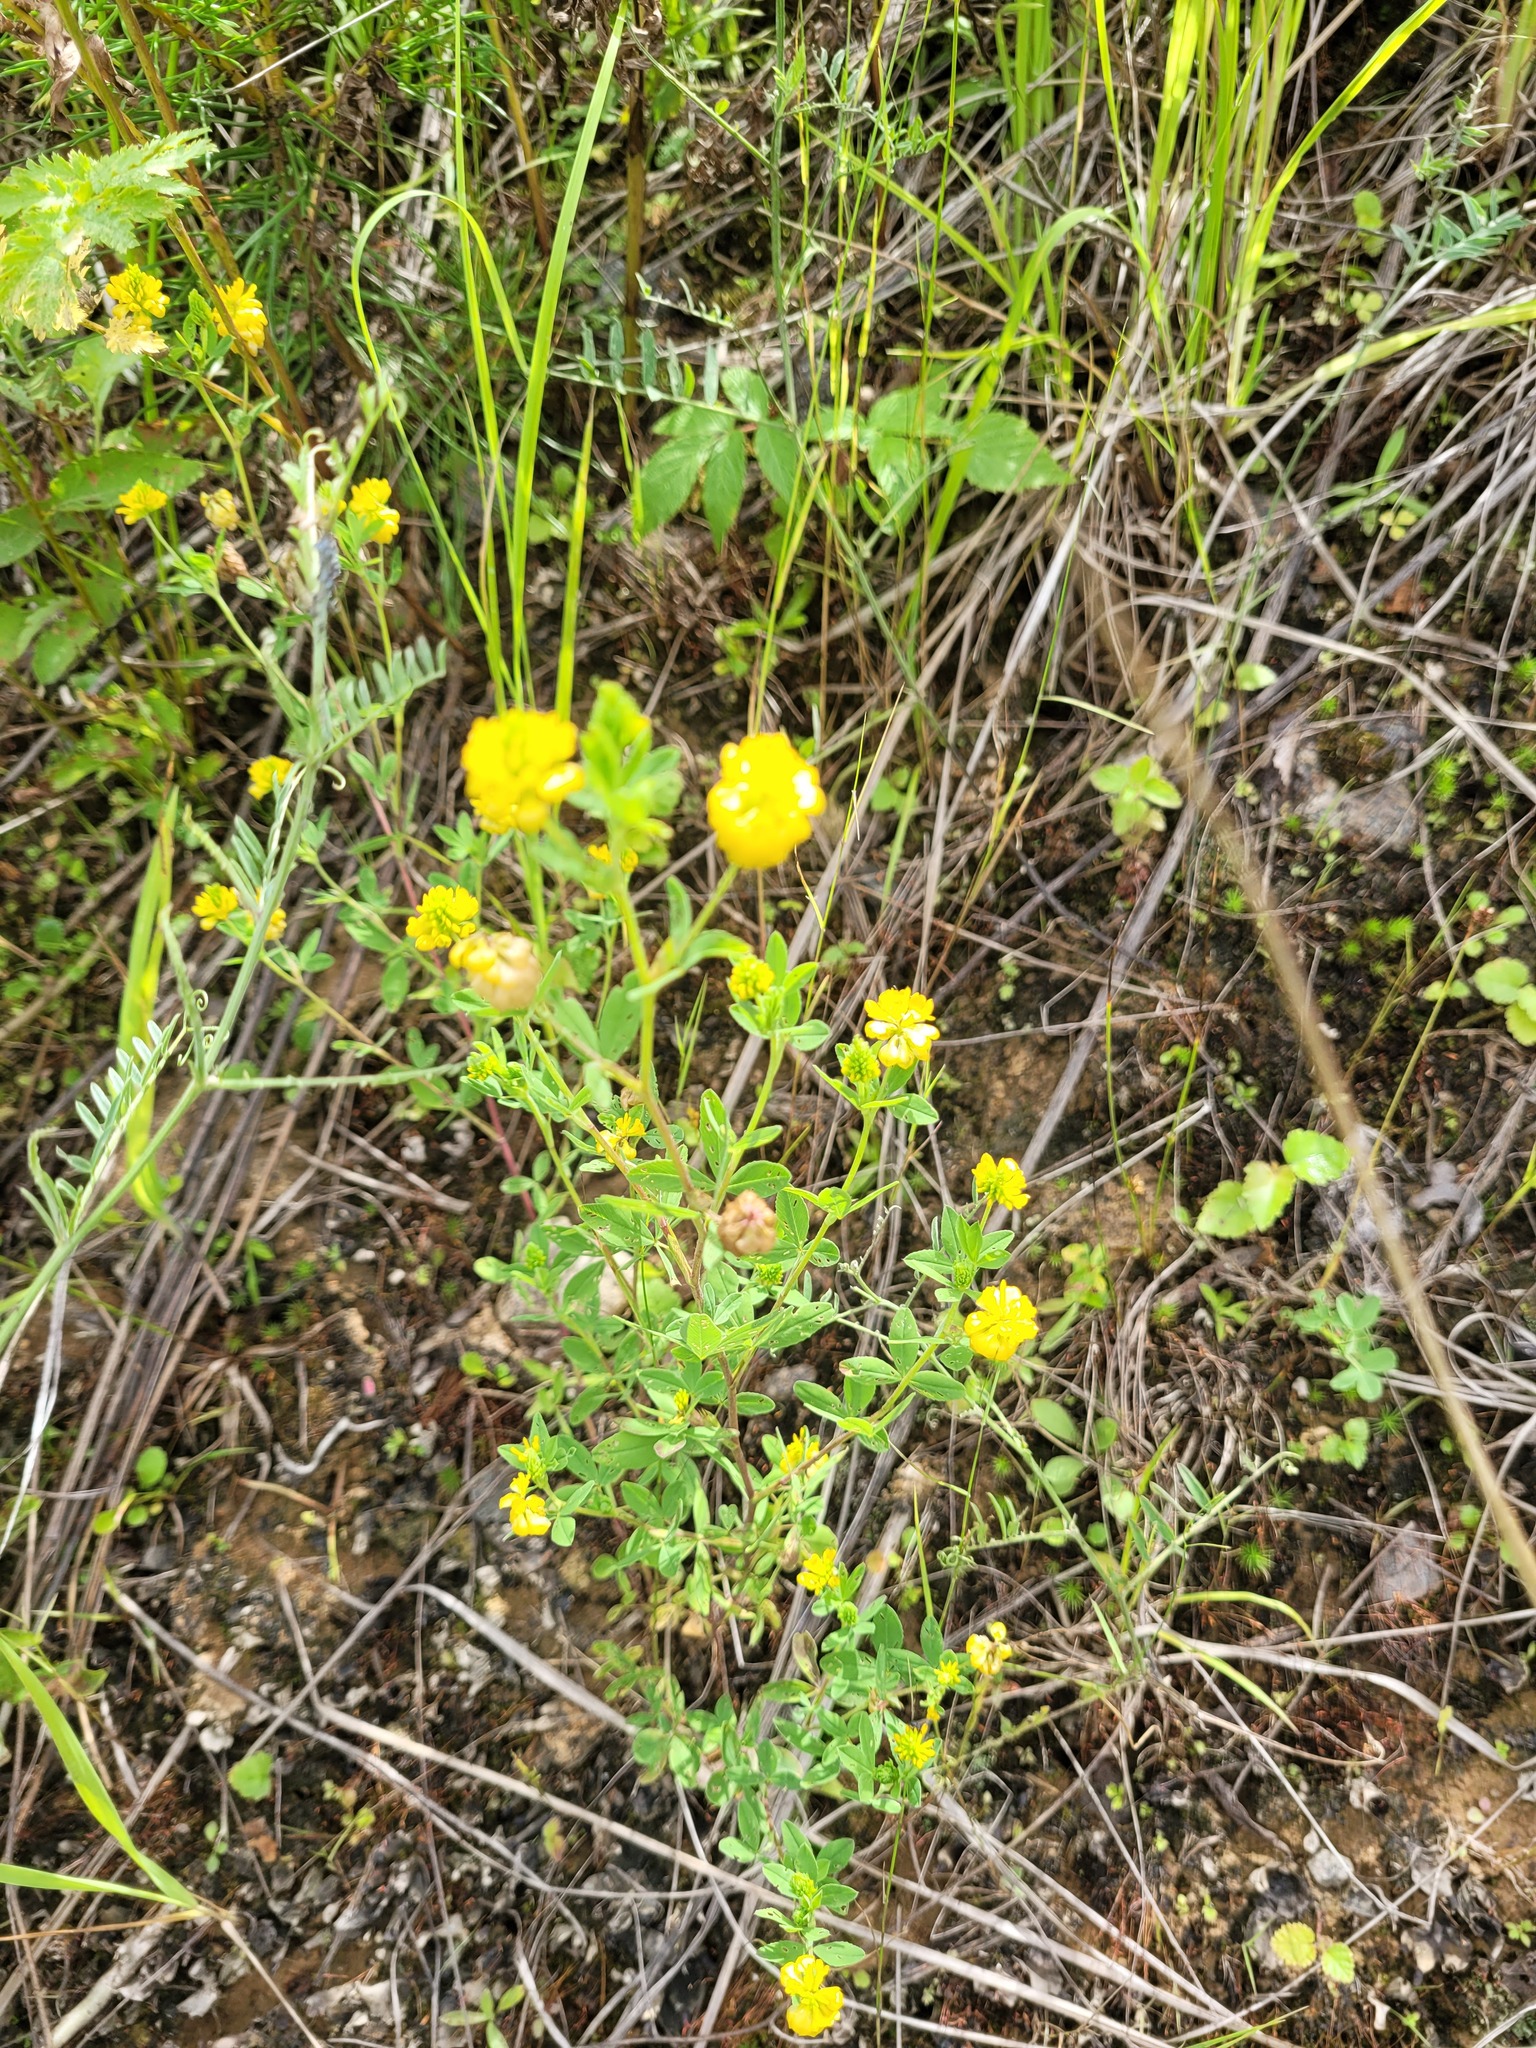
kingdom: Plantae
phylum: Tracheophyta
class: Magnoliopsida
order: Fabales
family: Fabaceae
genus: Trifolium
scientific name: Trifolium aureum
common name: Golden clover
